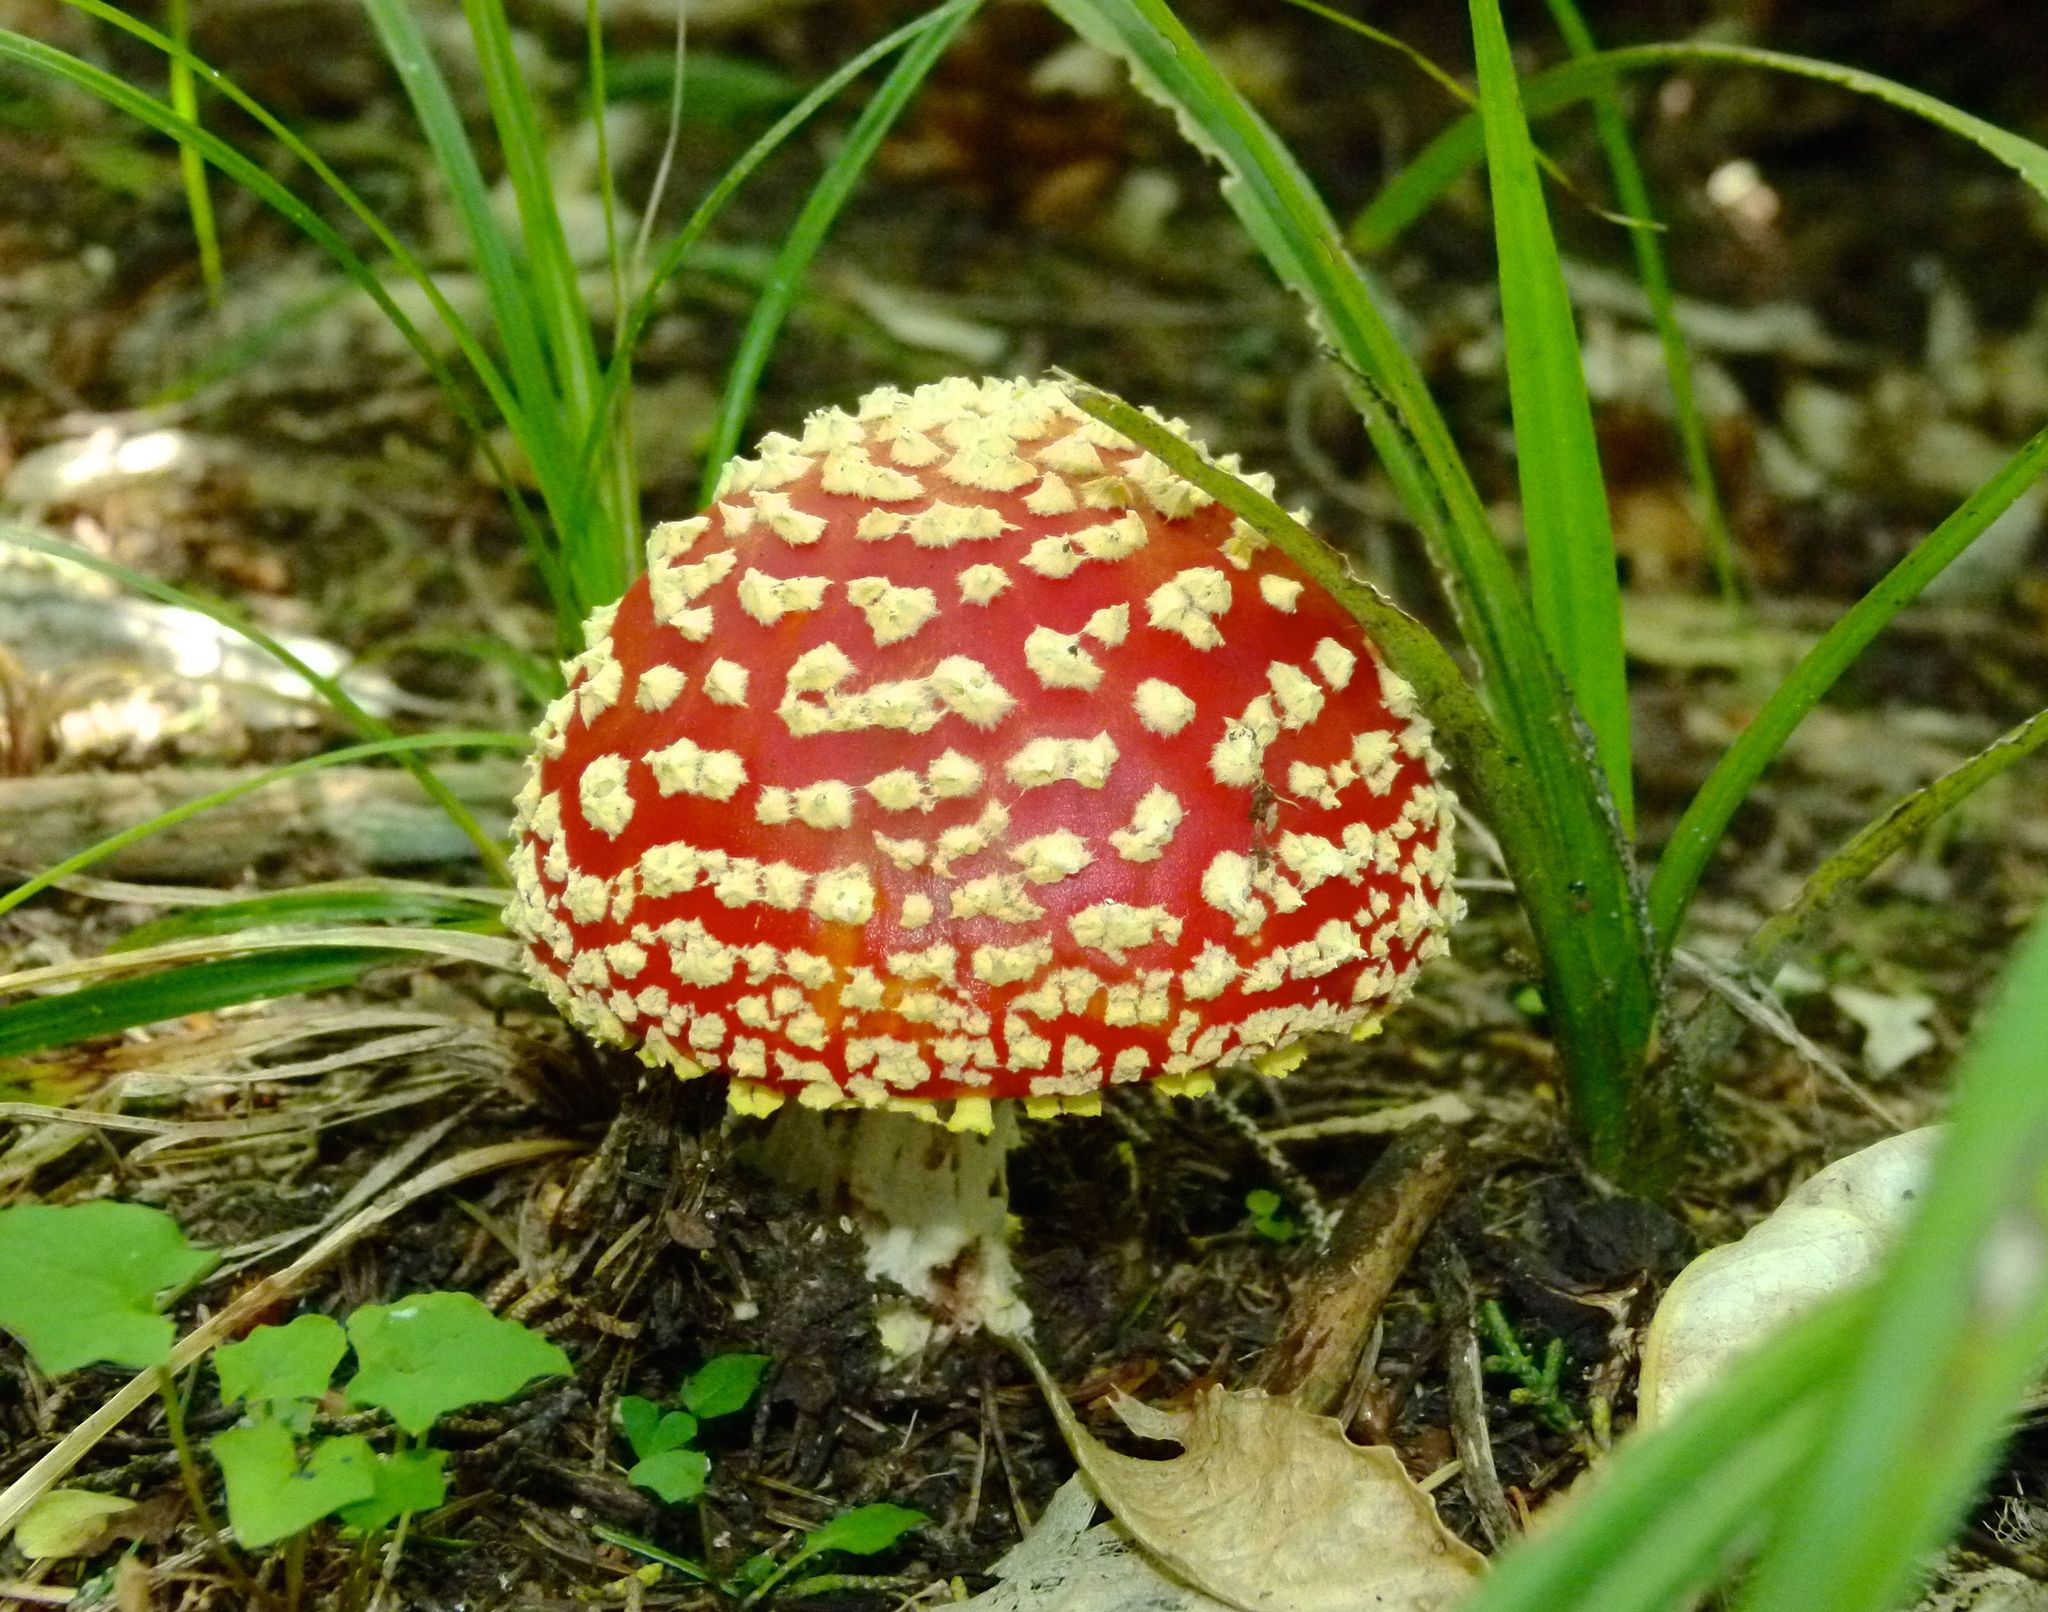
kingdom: Fungi
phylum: Basidiomycota
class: Agaricomycetes
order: Agaricales
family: Amanitaceae
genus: Amanita
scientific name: Amanita muscaria
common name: Fly agaric
